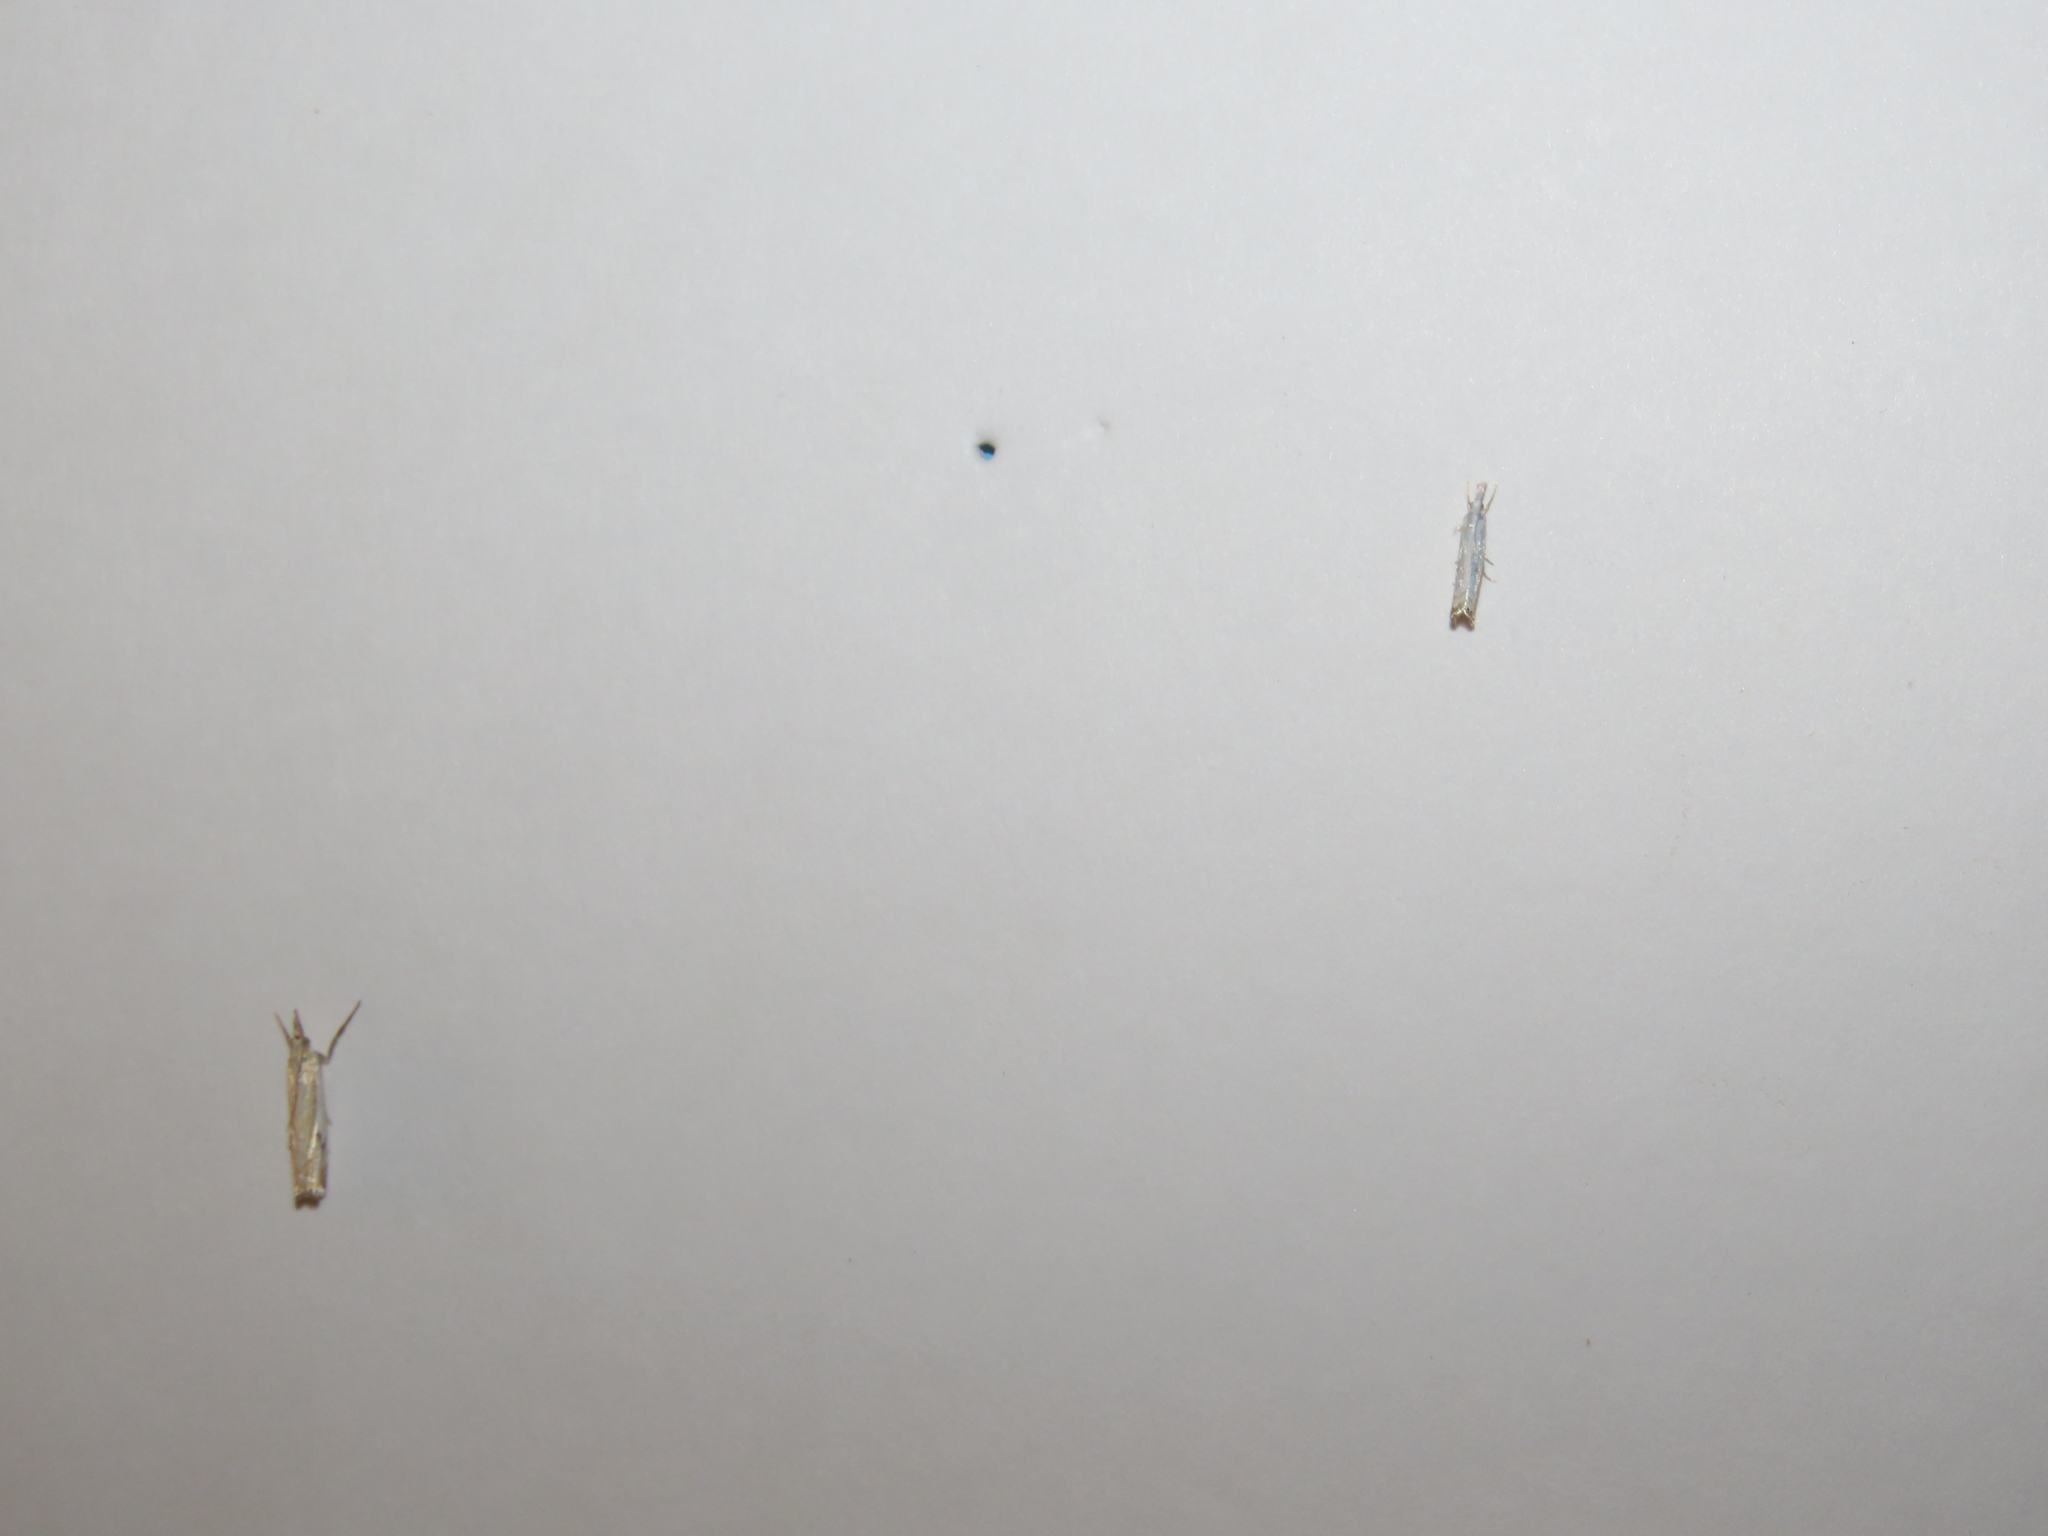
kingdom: Animalia
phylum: Arthropoda
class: Insecta
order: Lepidoptera
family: Crambidae
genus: Crambus
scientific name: Crambus albellus
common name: Small white grass-veneer
